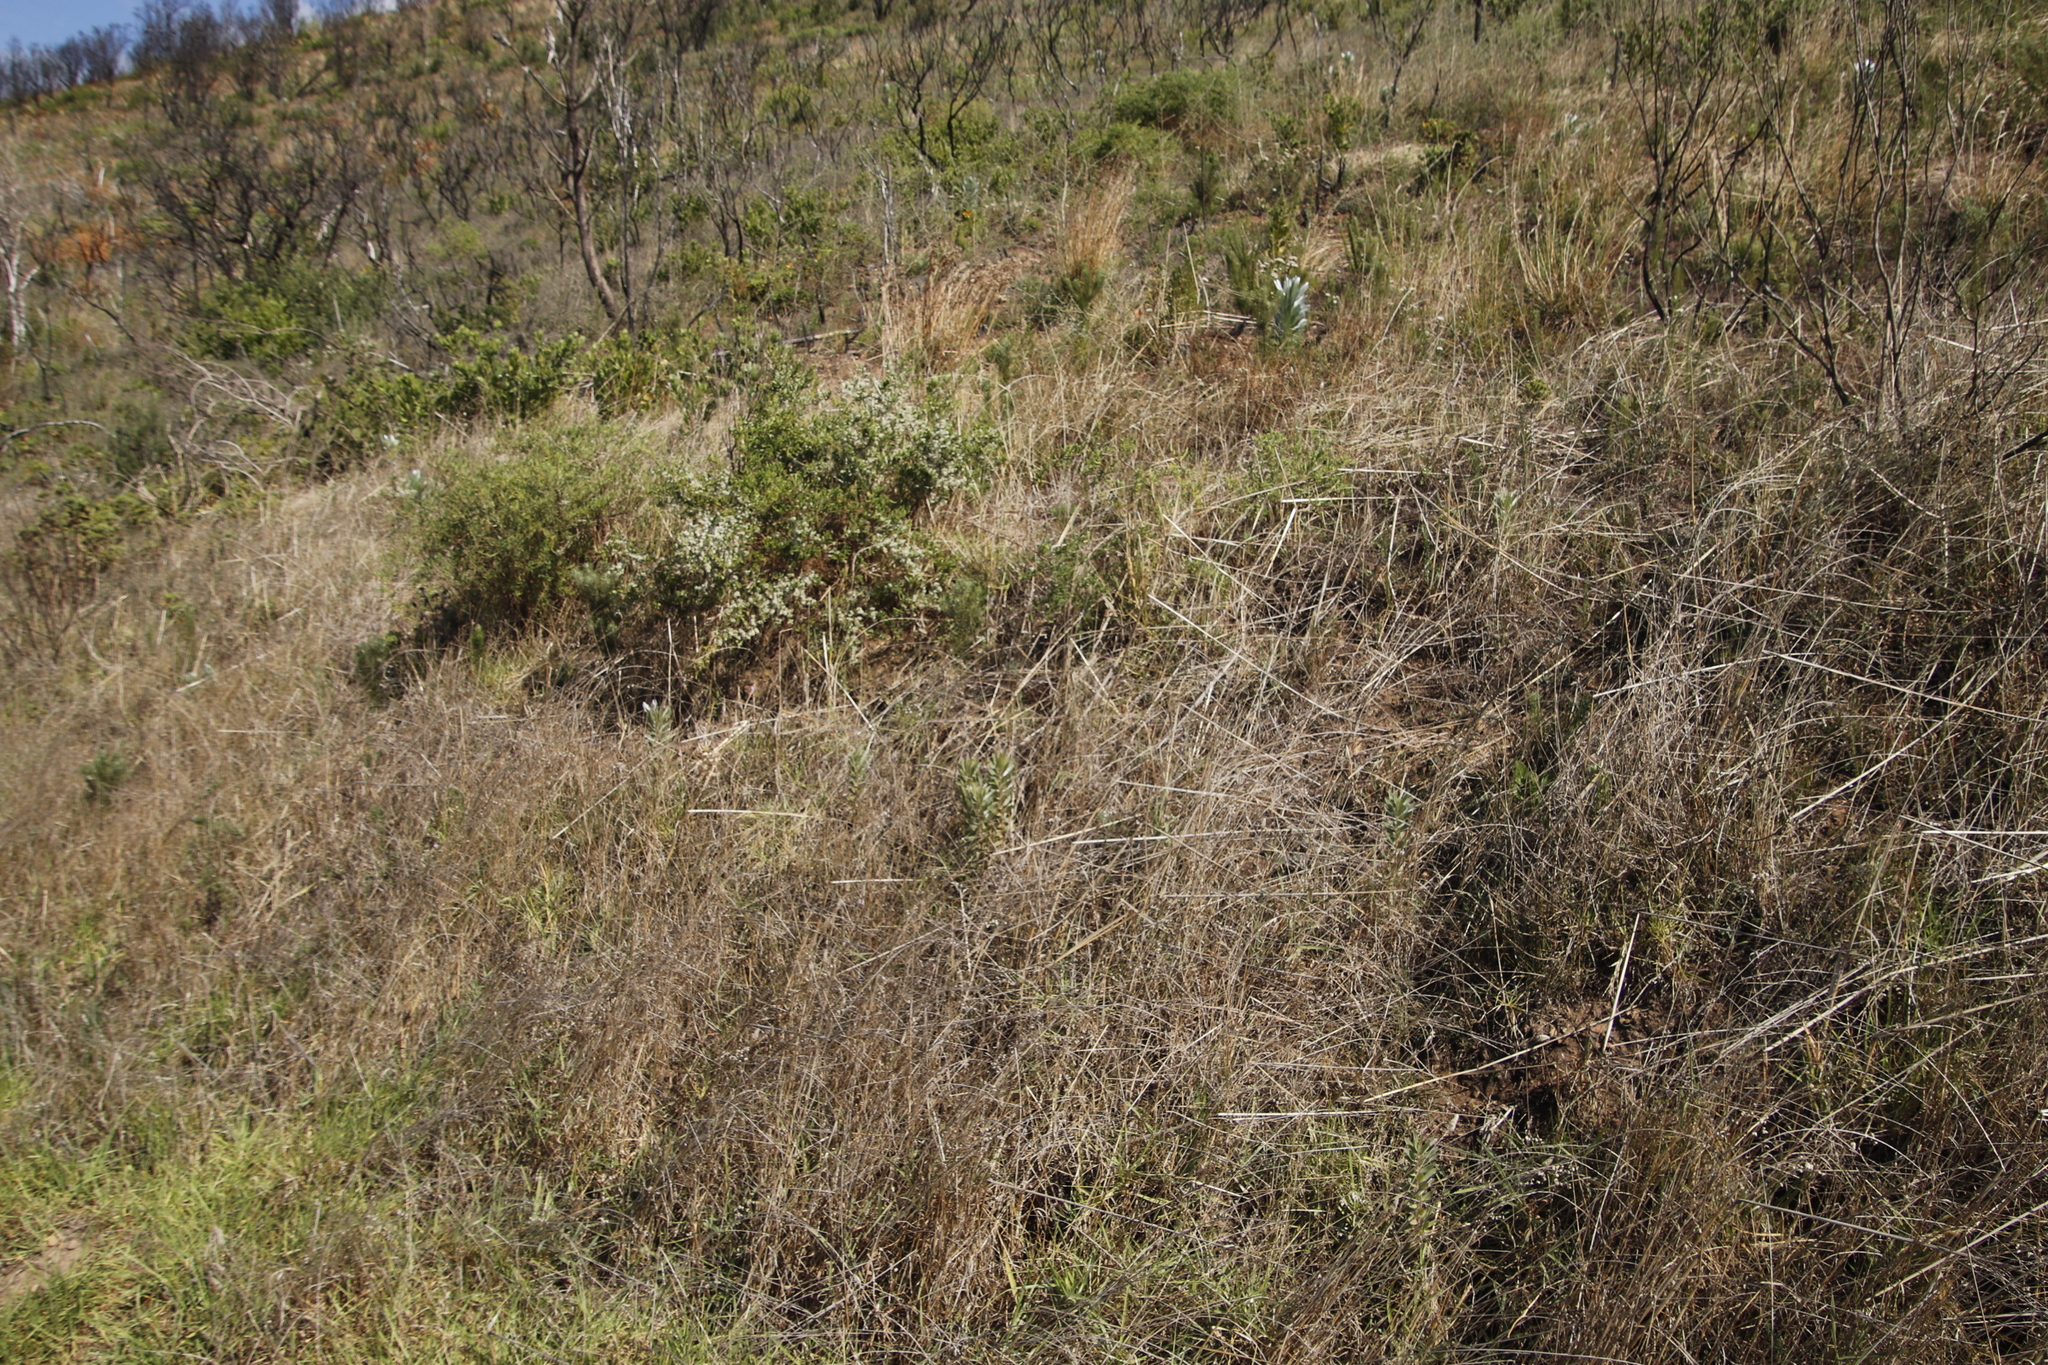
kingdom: Plantae
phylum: Tracheophyta
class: Magnoliopsida
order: Proteales
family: Proteaceae
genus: Leucadendron
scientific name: Leucadendron argenteum
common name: Cape silver tree
